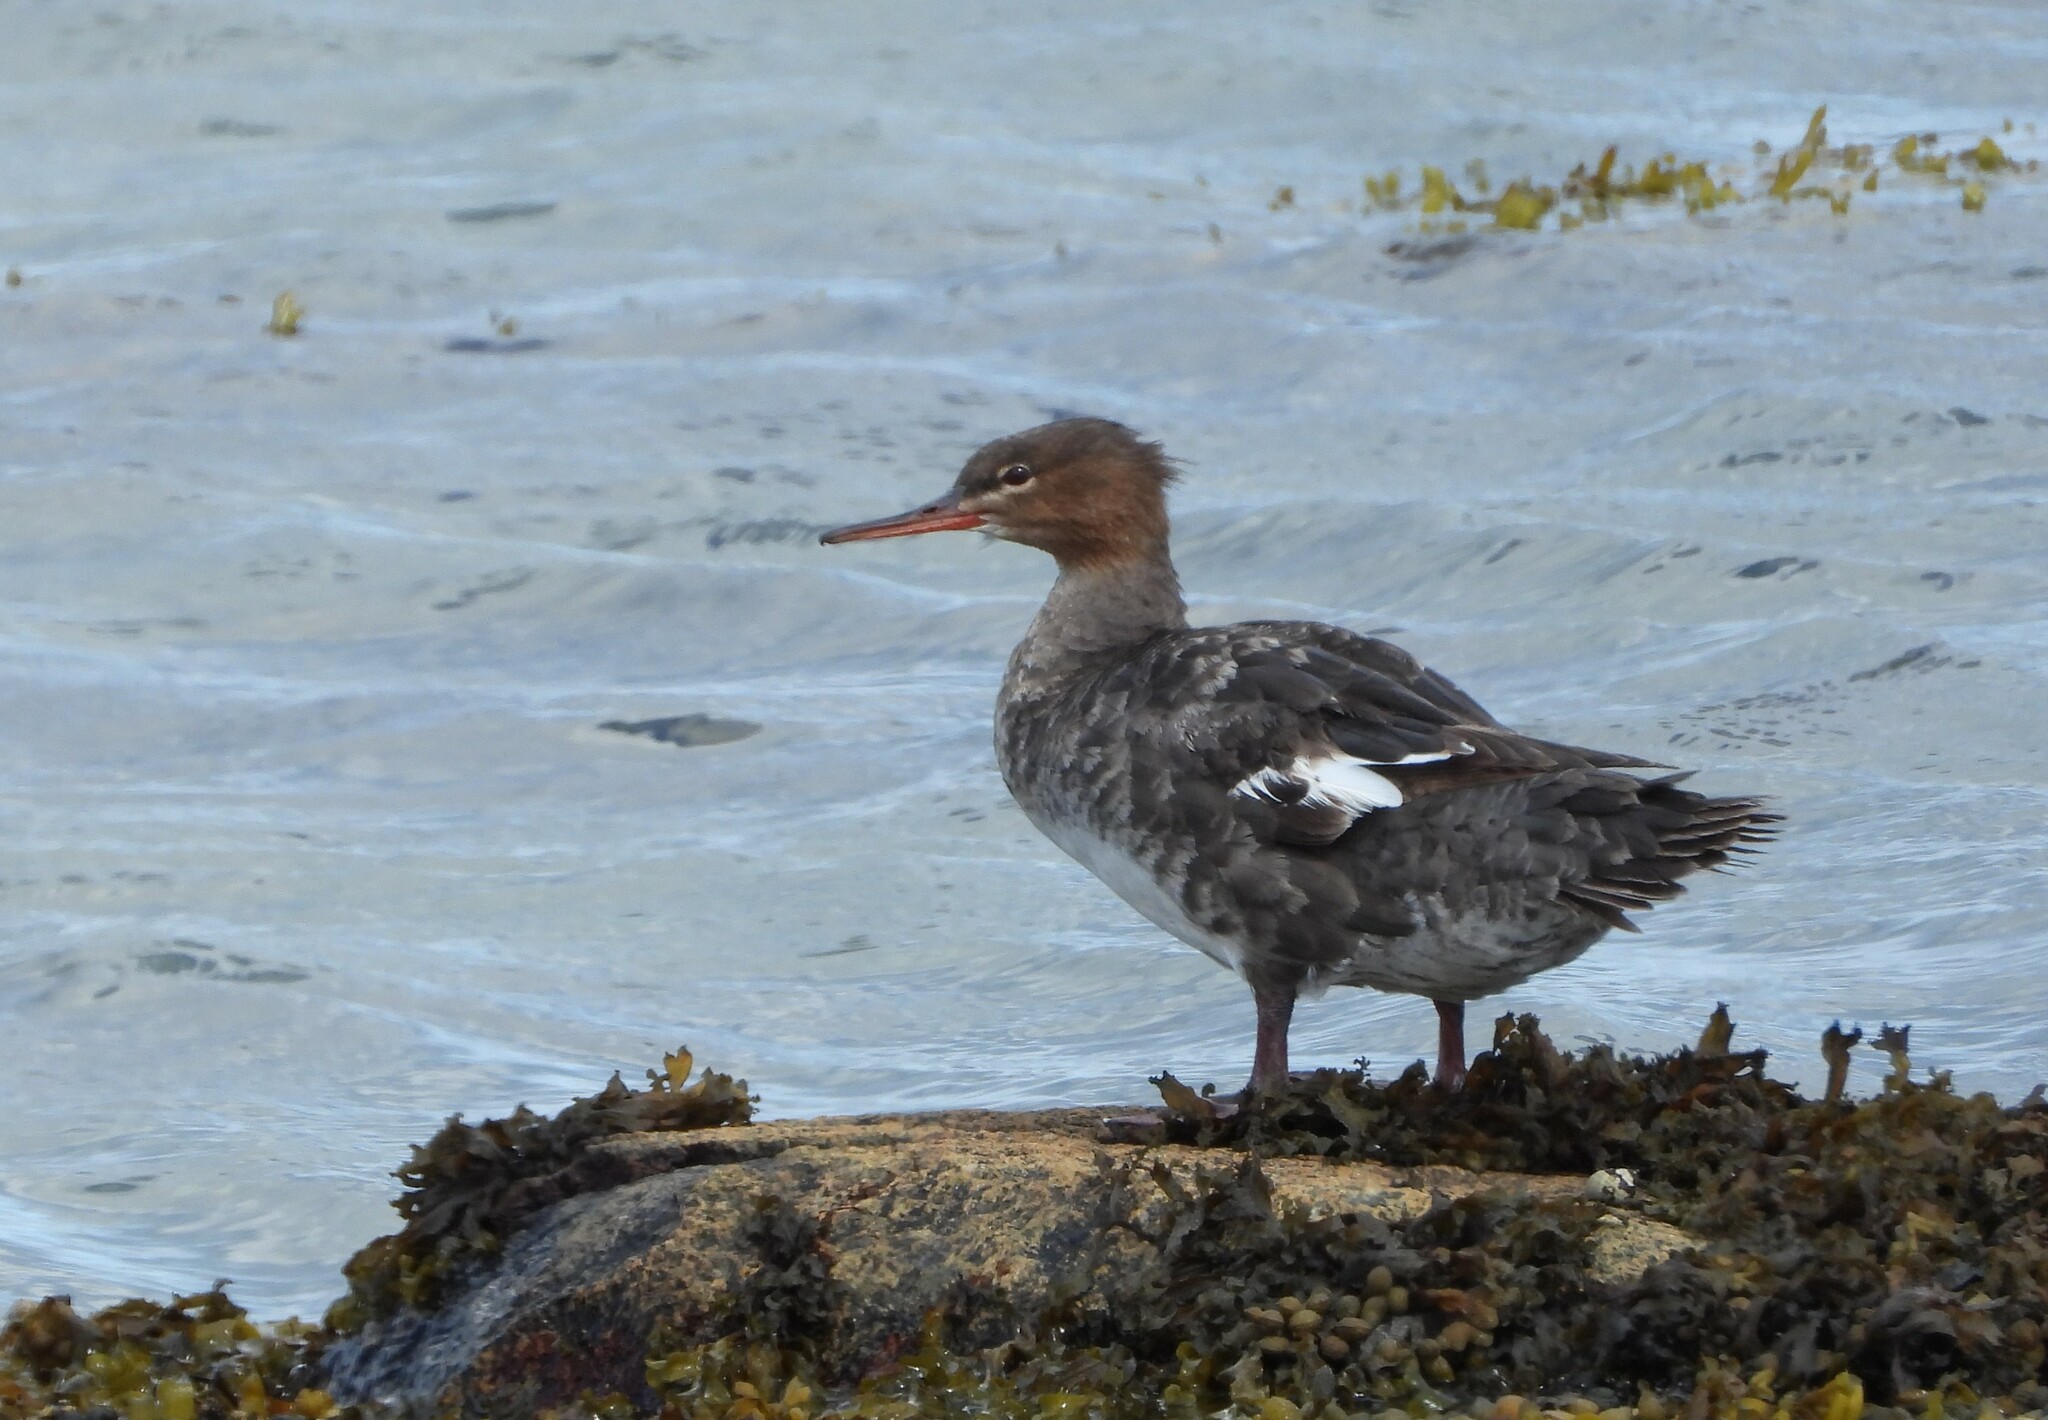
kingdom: Animalia
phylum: Chordata
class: Aves
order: Anseriformes
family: Anatidae
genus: Mergus
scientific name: Mergus serrator
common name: Red-breasted merganser
